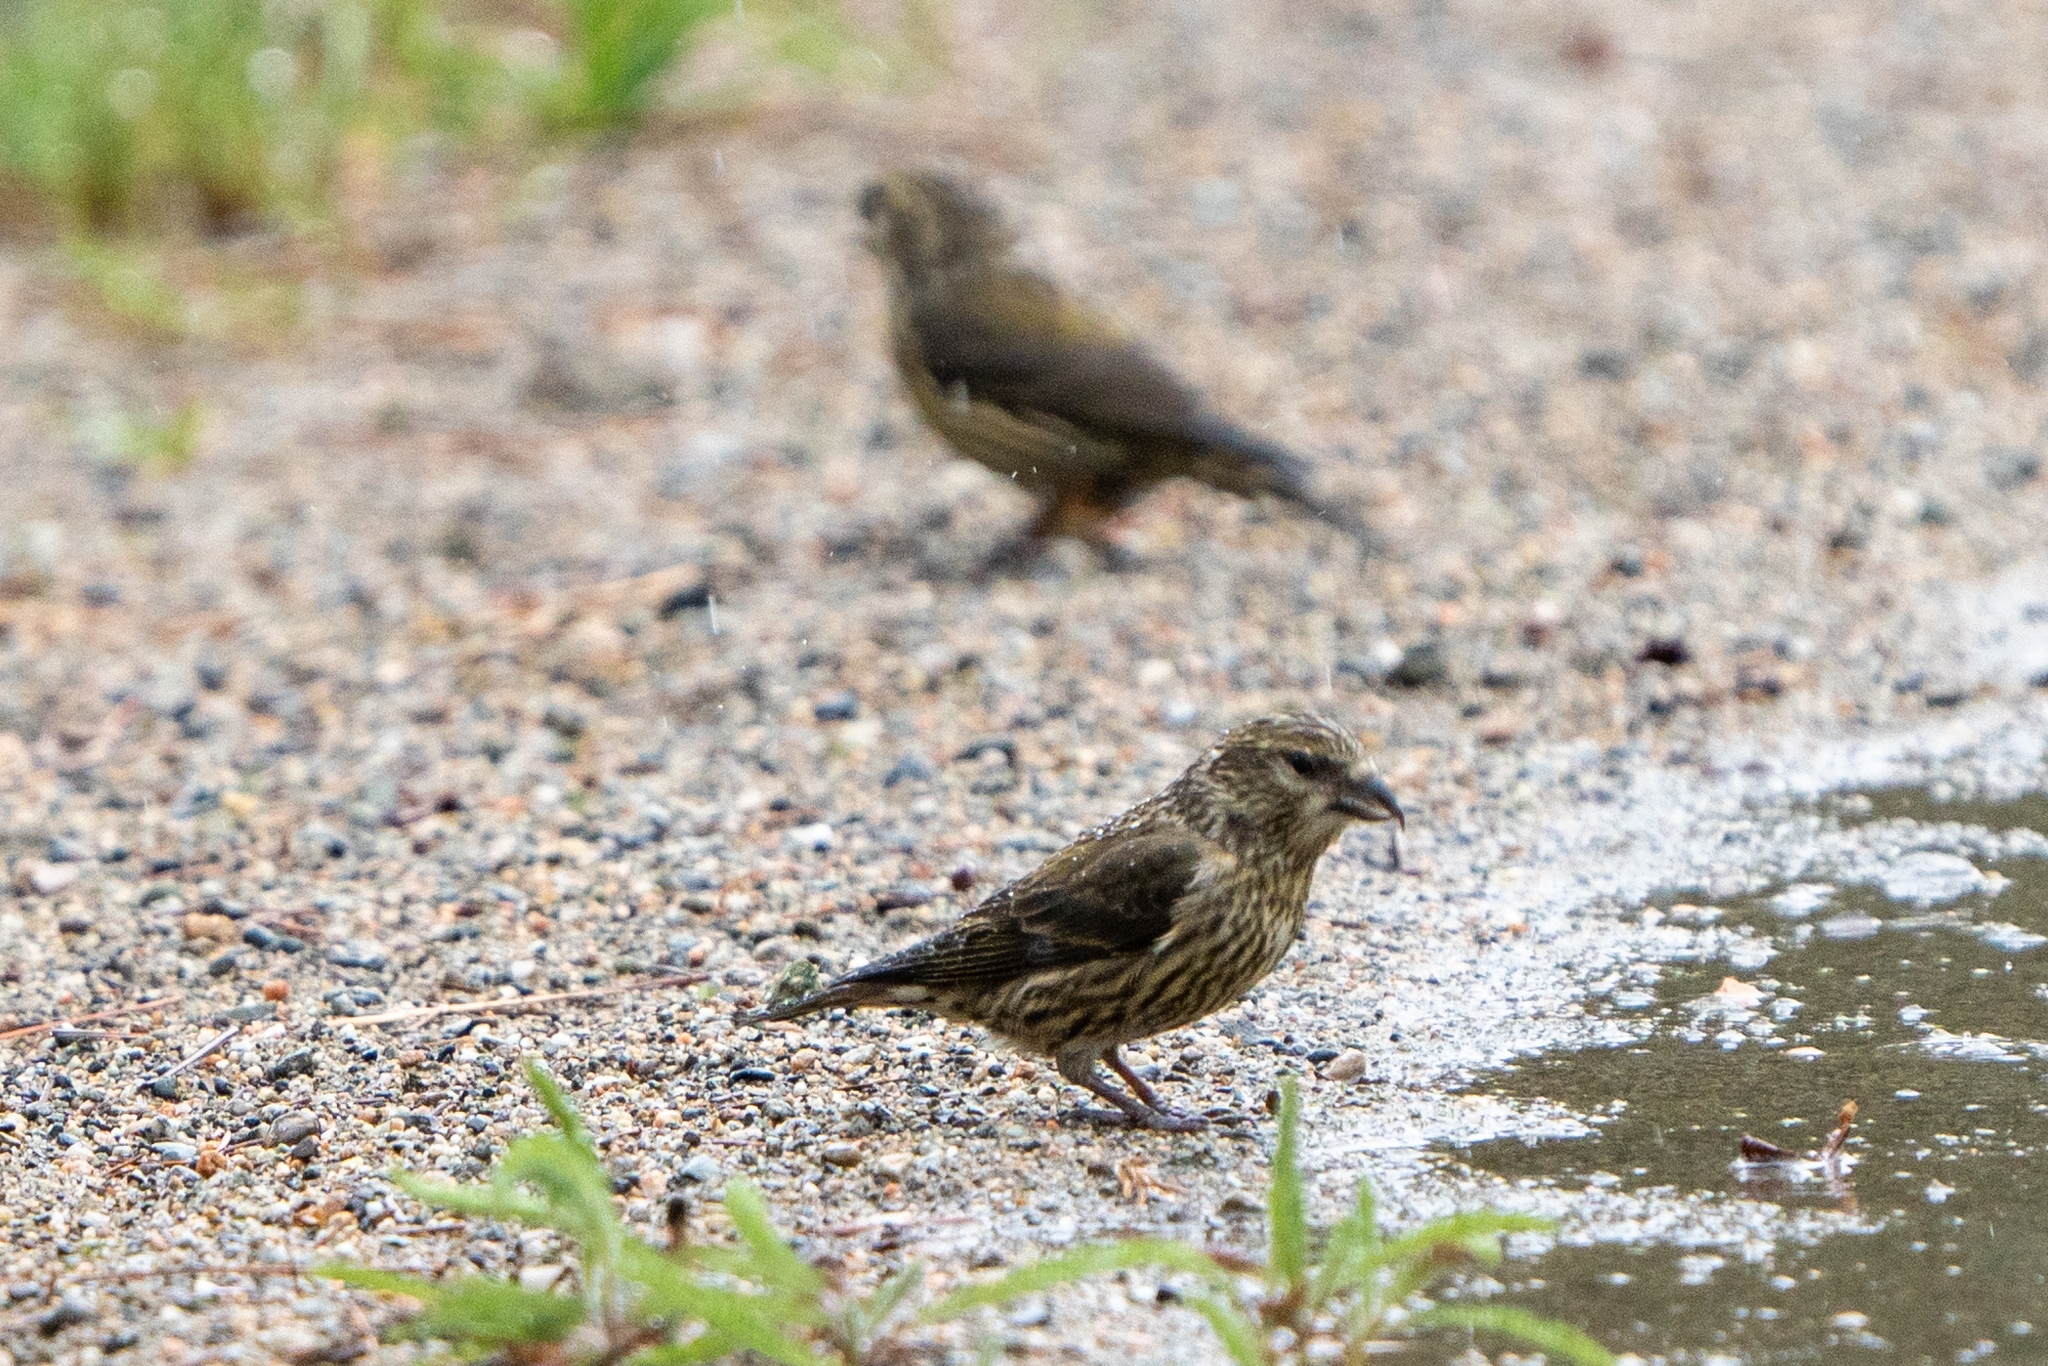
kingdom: Animalia
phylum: Chordata
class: Aves
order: Passeriformes
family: Fringillidae
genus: Loxia
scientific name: Loxia curvirostra
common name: Red crossbill
